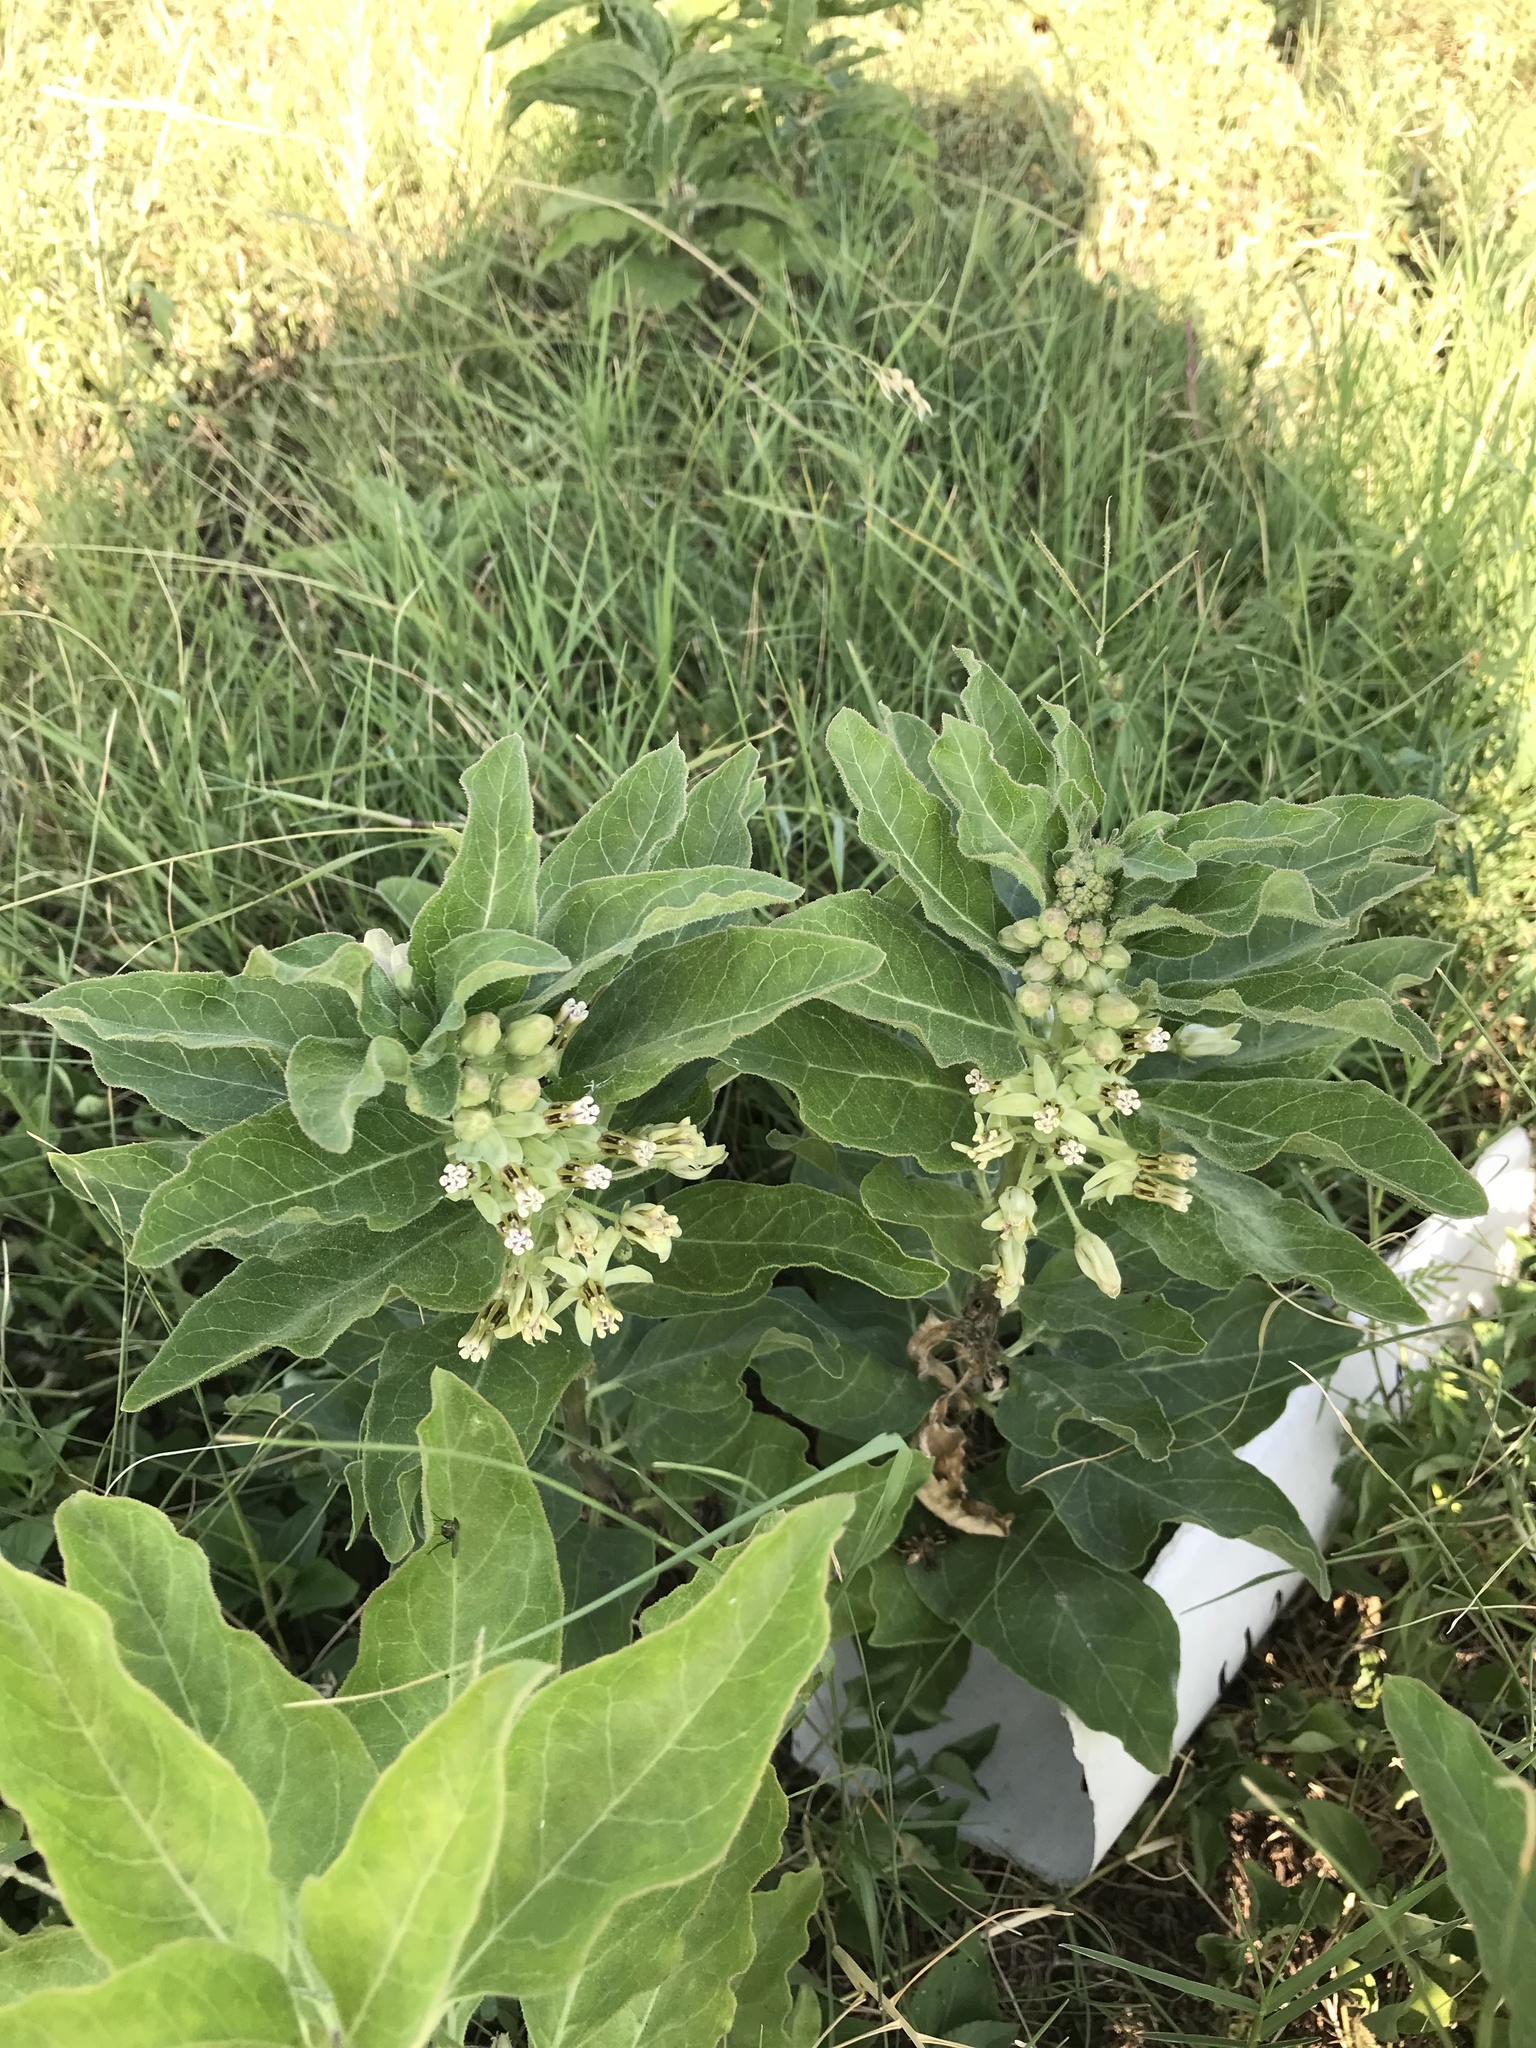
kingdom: Plantae
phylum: Tracheophyta
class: Magnoliopsida
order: Gentianales
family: Apocynaceae
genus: Asclepias
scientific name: Asclepias oenotheroides
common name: Zizotes milkweed
